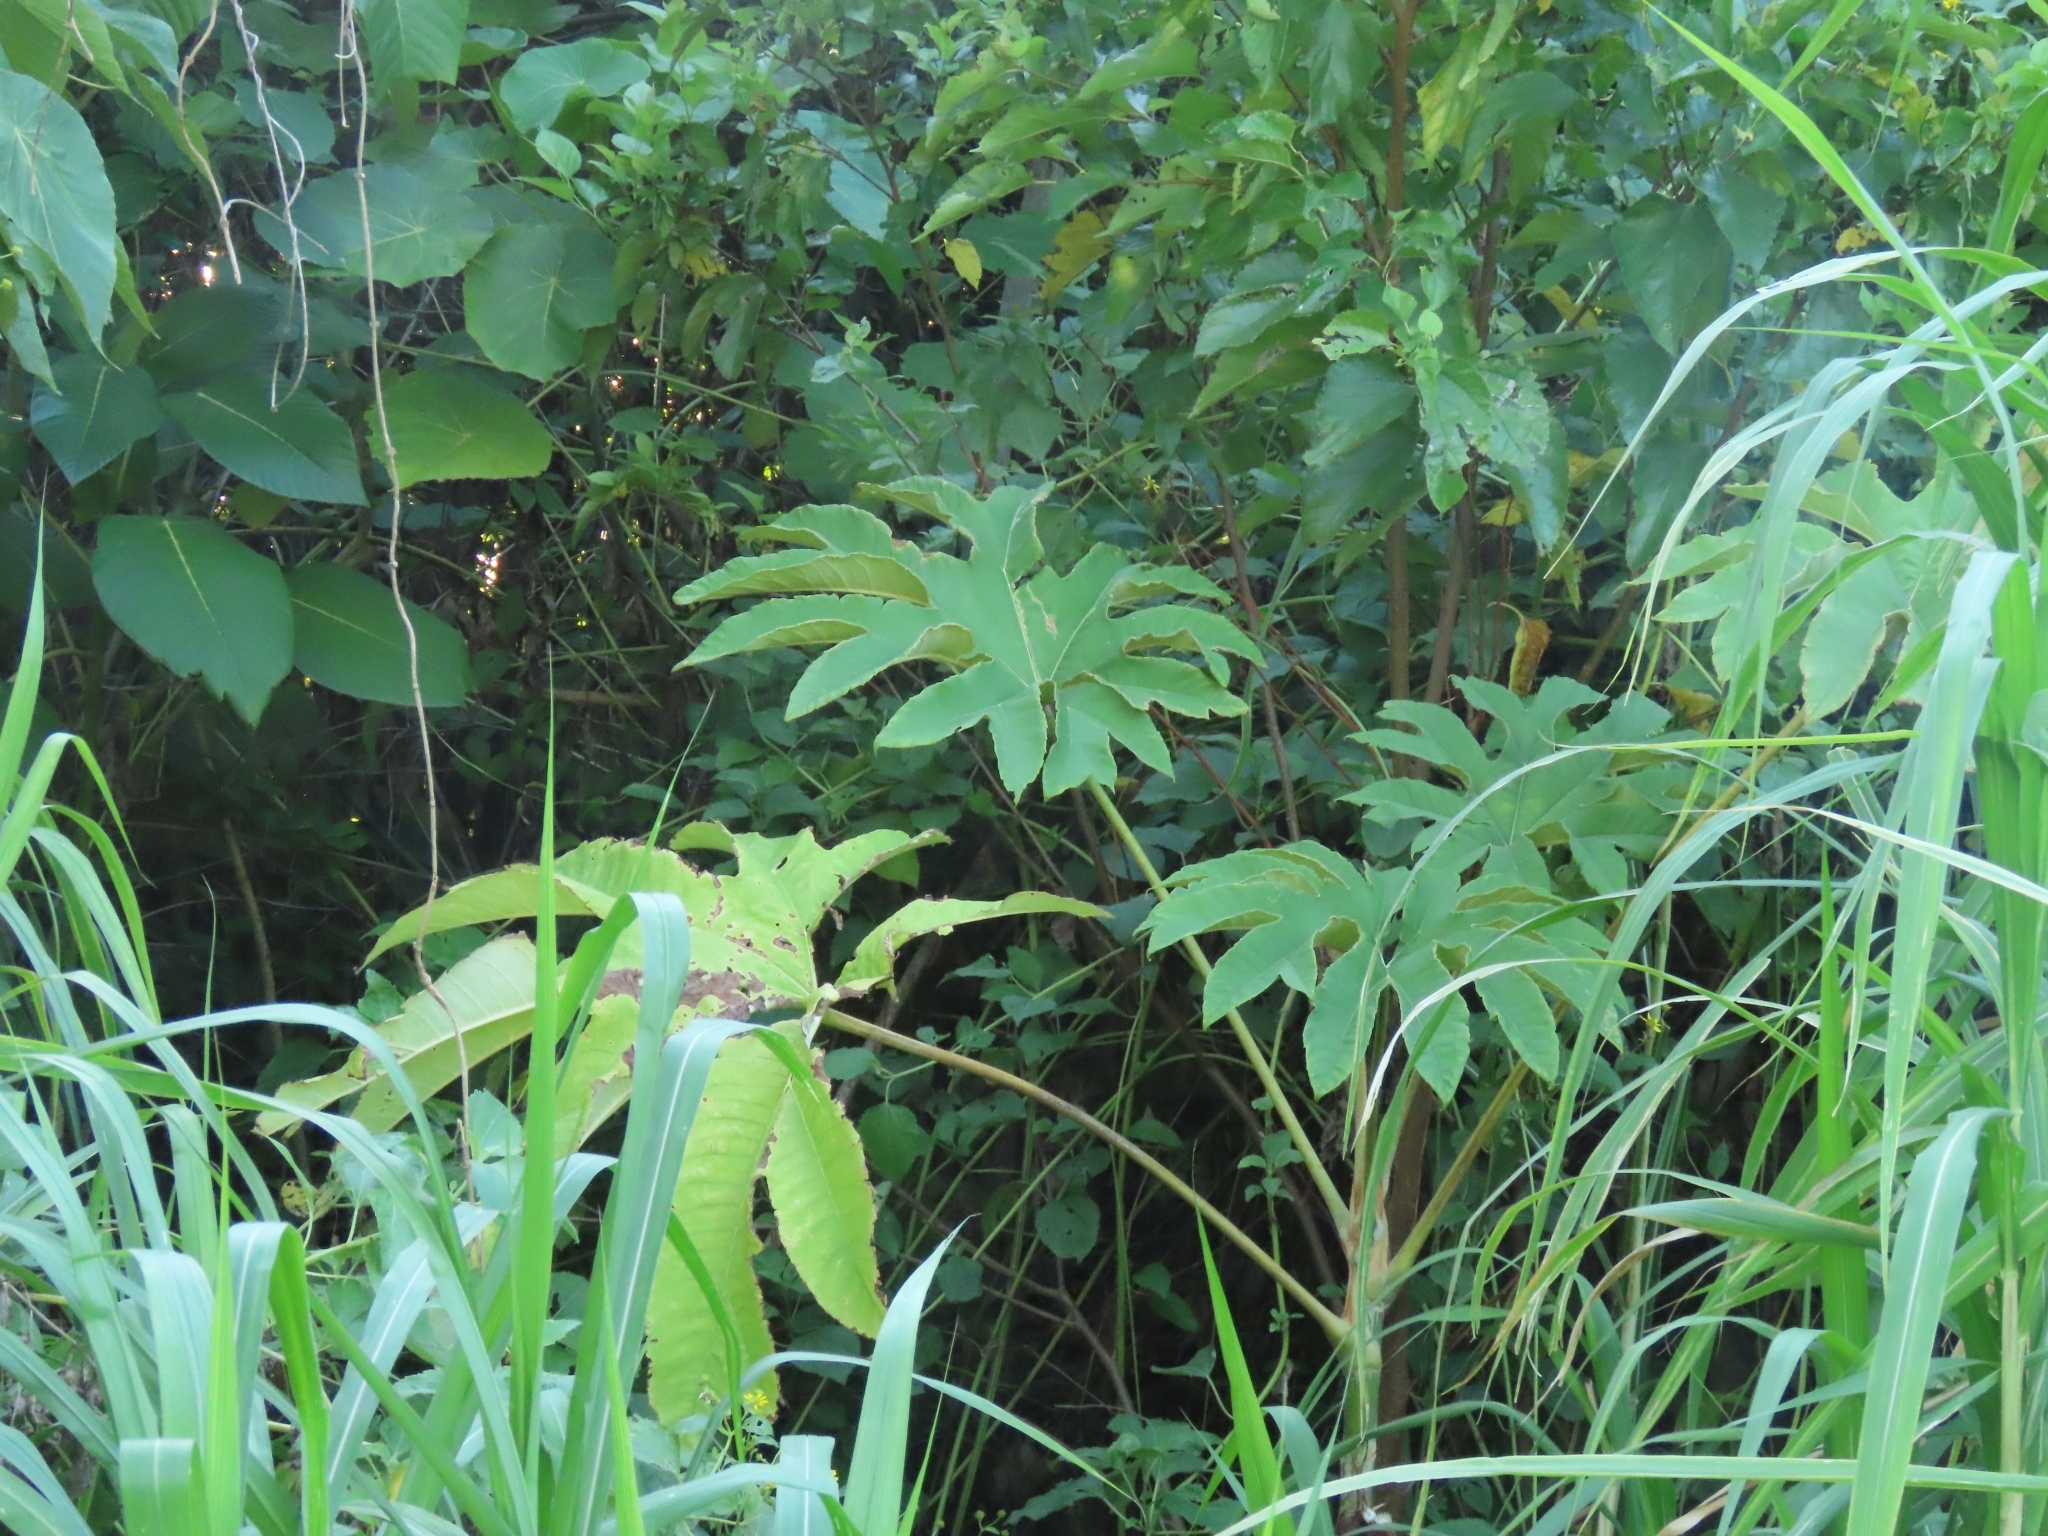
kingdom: Plantae
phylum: Tracheophyta
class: Magnoliopsida
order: Apiales
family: Araliaceae
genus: Tetrapanax
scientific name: Tetrapanax papyrifer
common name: Rice-paper plant
